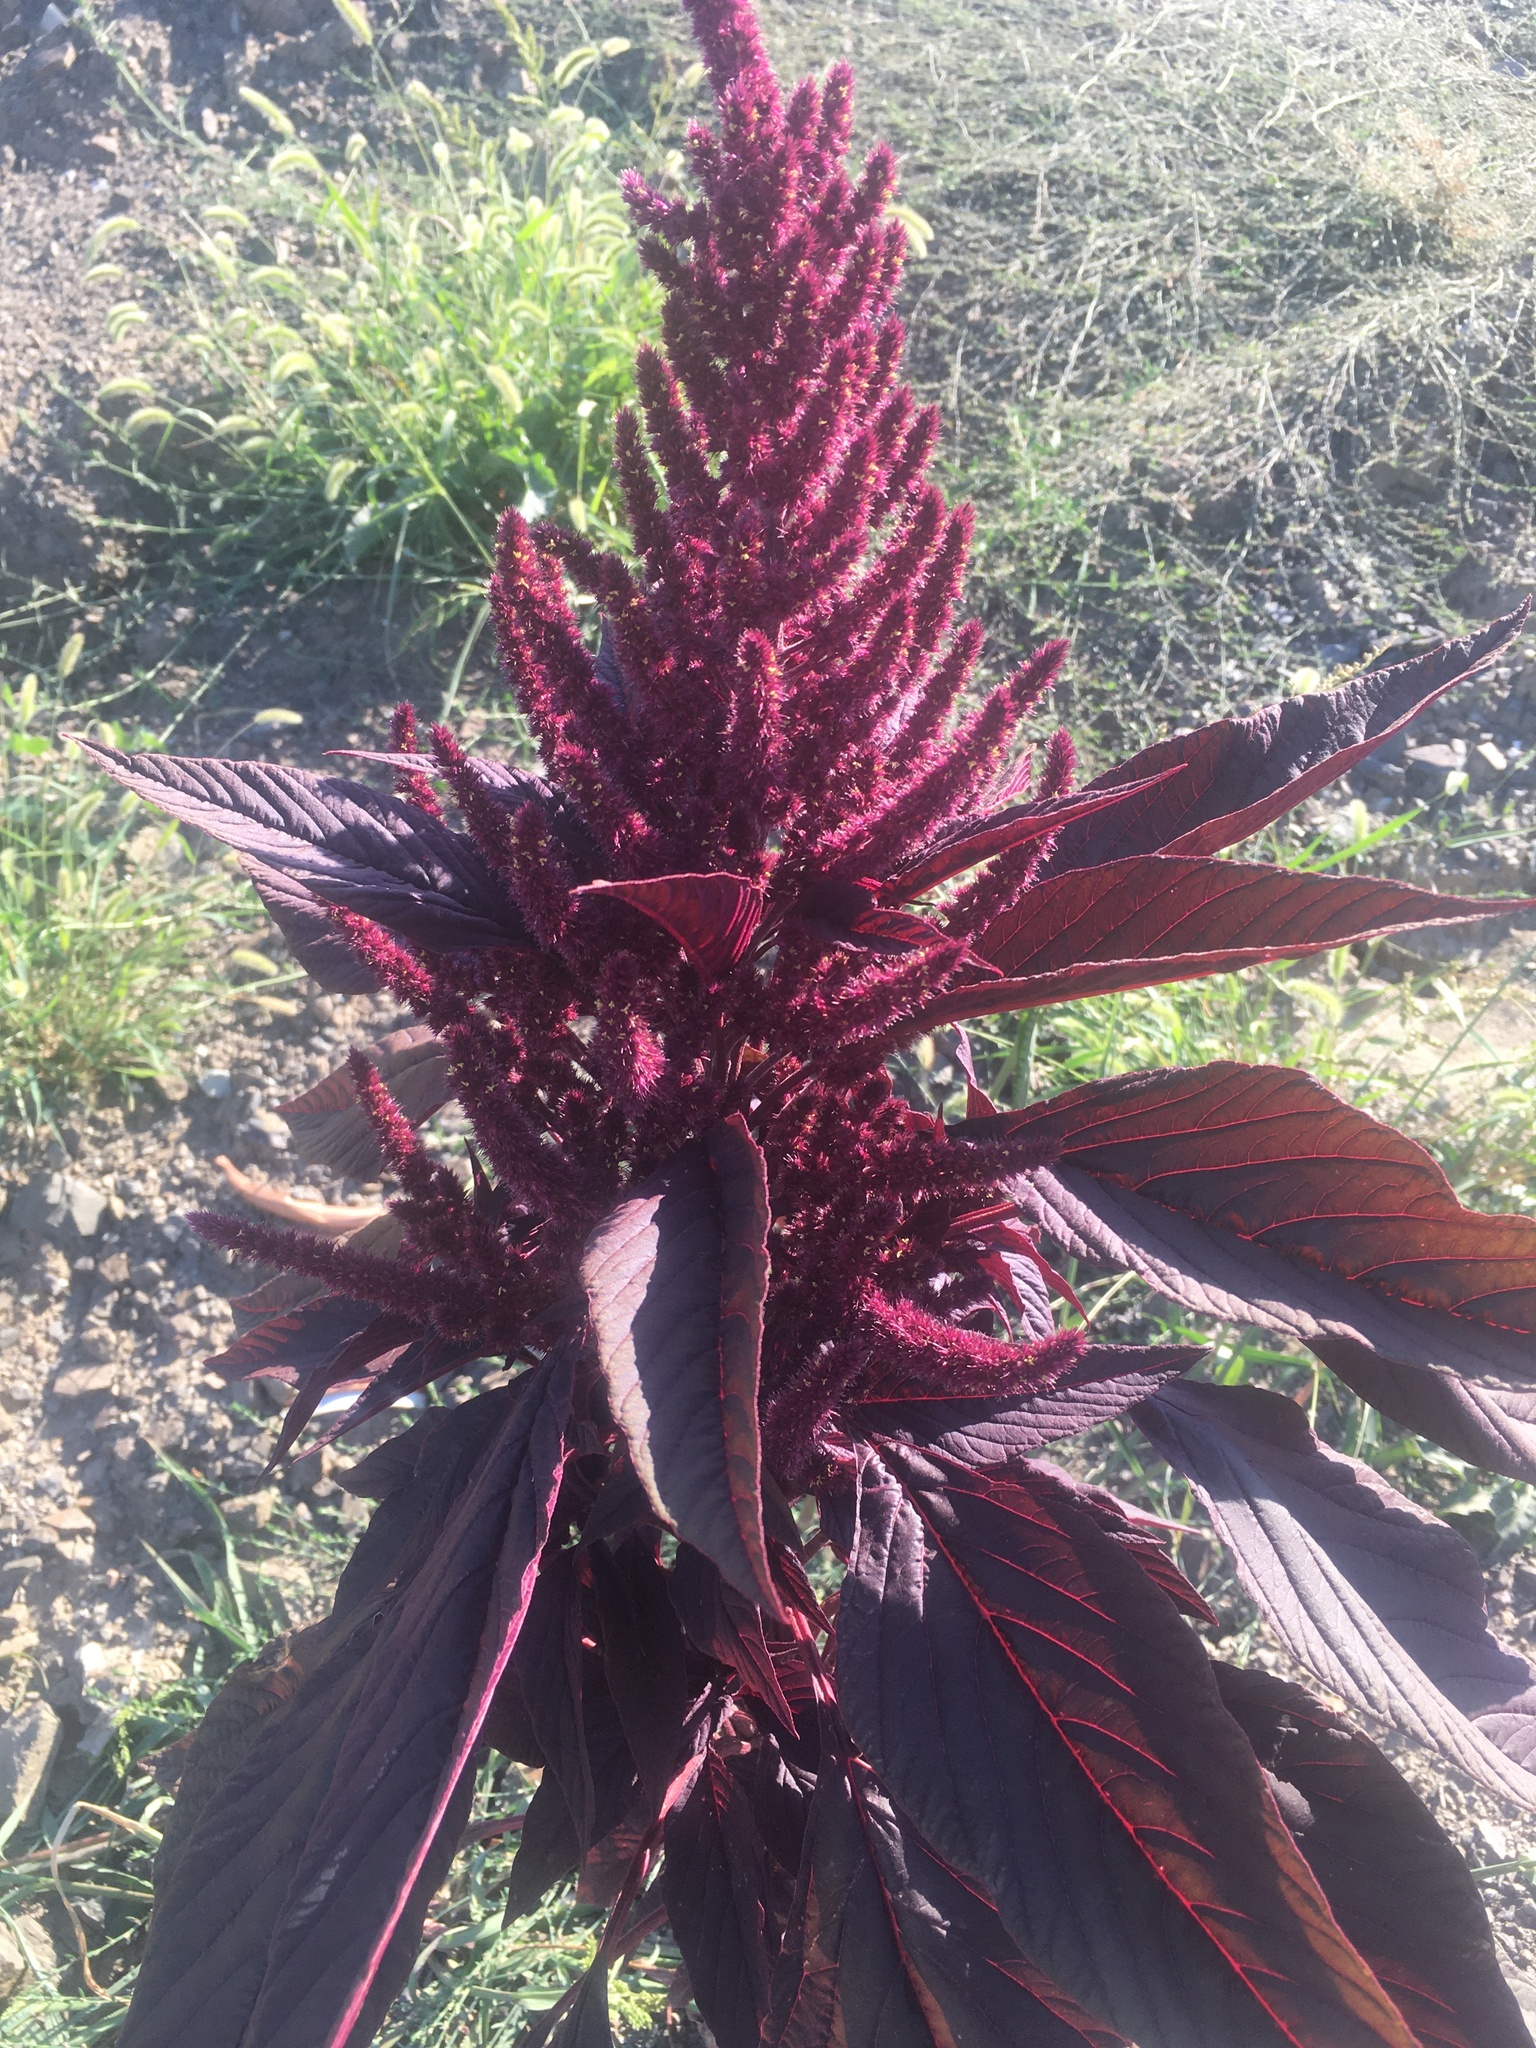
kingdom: Plantae
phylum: Tracheophyta
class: Magnoliopsida
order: Caryophyllales
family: Amaranthaceae
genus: Amaranthus
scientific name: Amaranthus cruentus
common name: Purple amaranth
